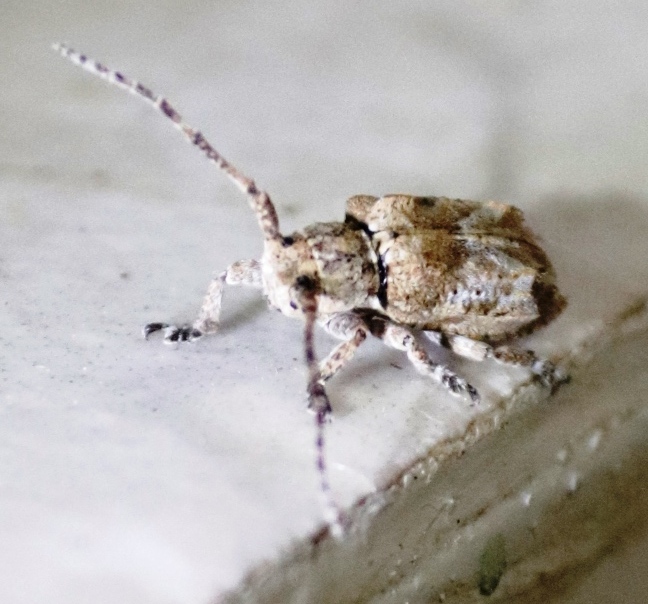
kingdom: Animalia
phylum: Arthropoda
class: Insecta
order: Coleoptera
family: Cerambycidae
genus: Pterolophia
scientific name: Pterolophia fascicularis
